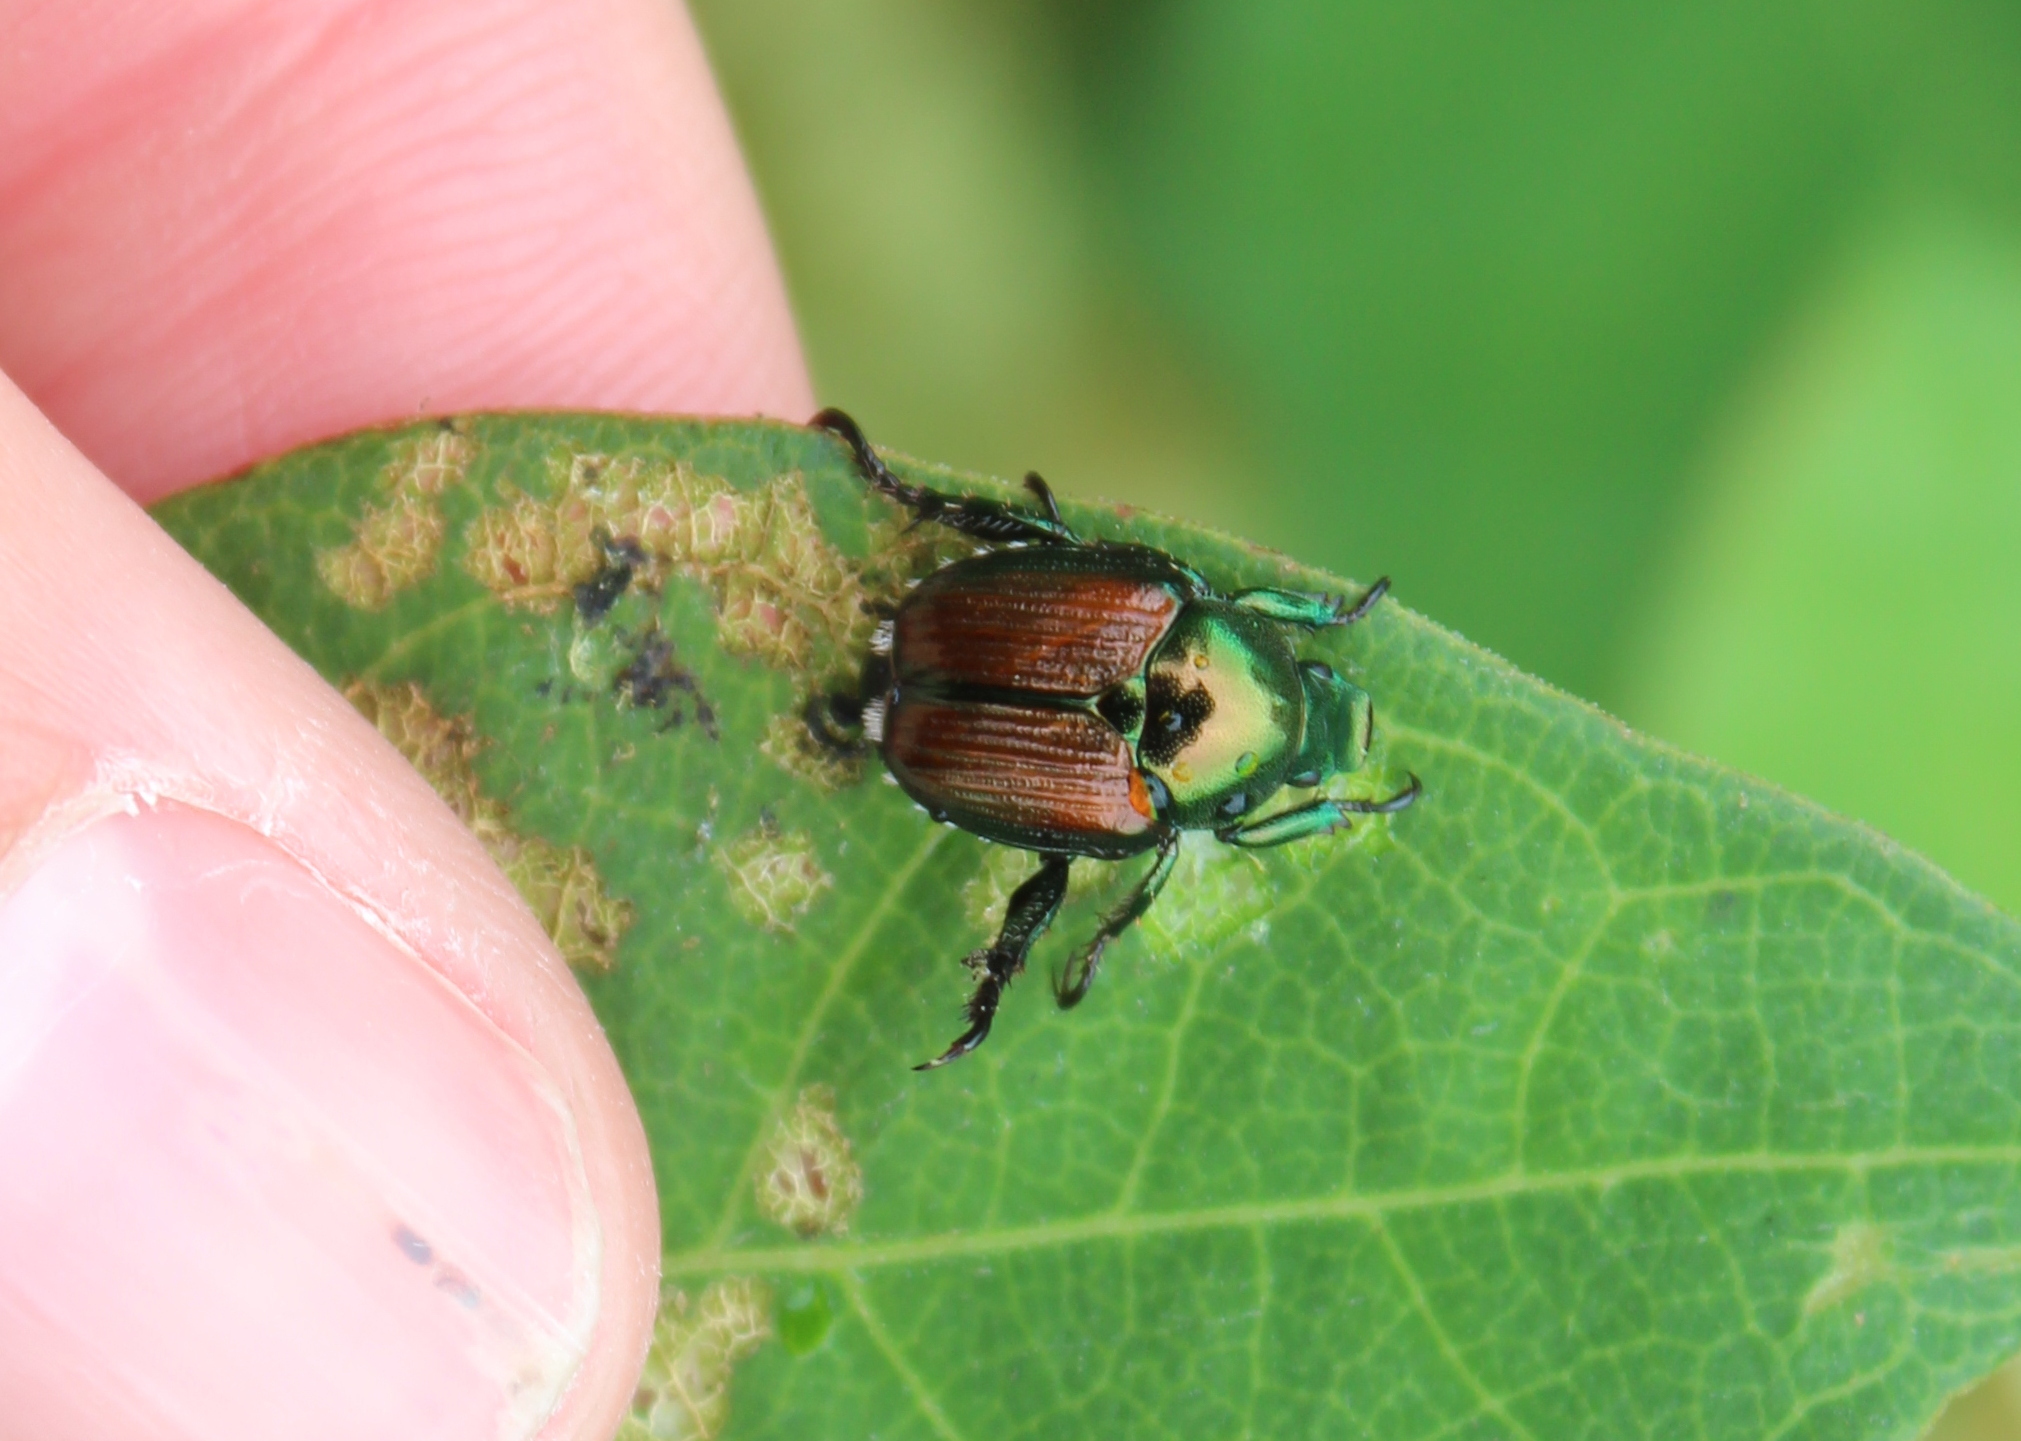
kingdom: Animalia
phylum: Arthropoda
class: Insecta
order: Coleoptera
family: Scarabaeidae
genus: Popillia
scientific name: Popillia japonica
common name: Japanese beetle
